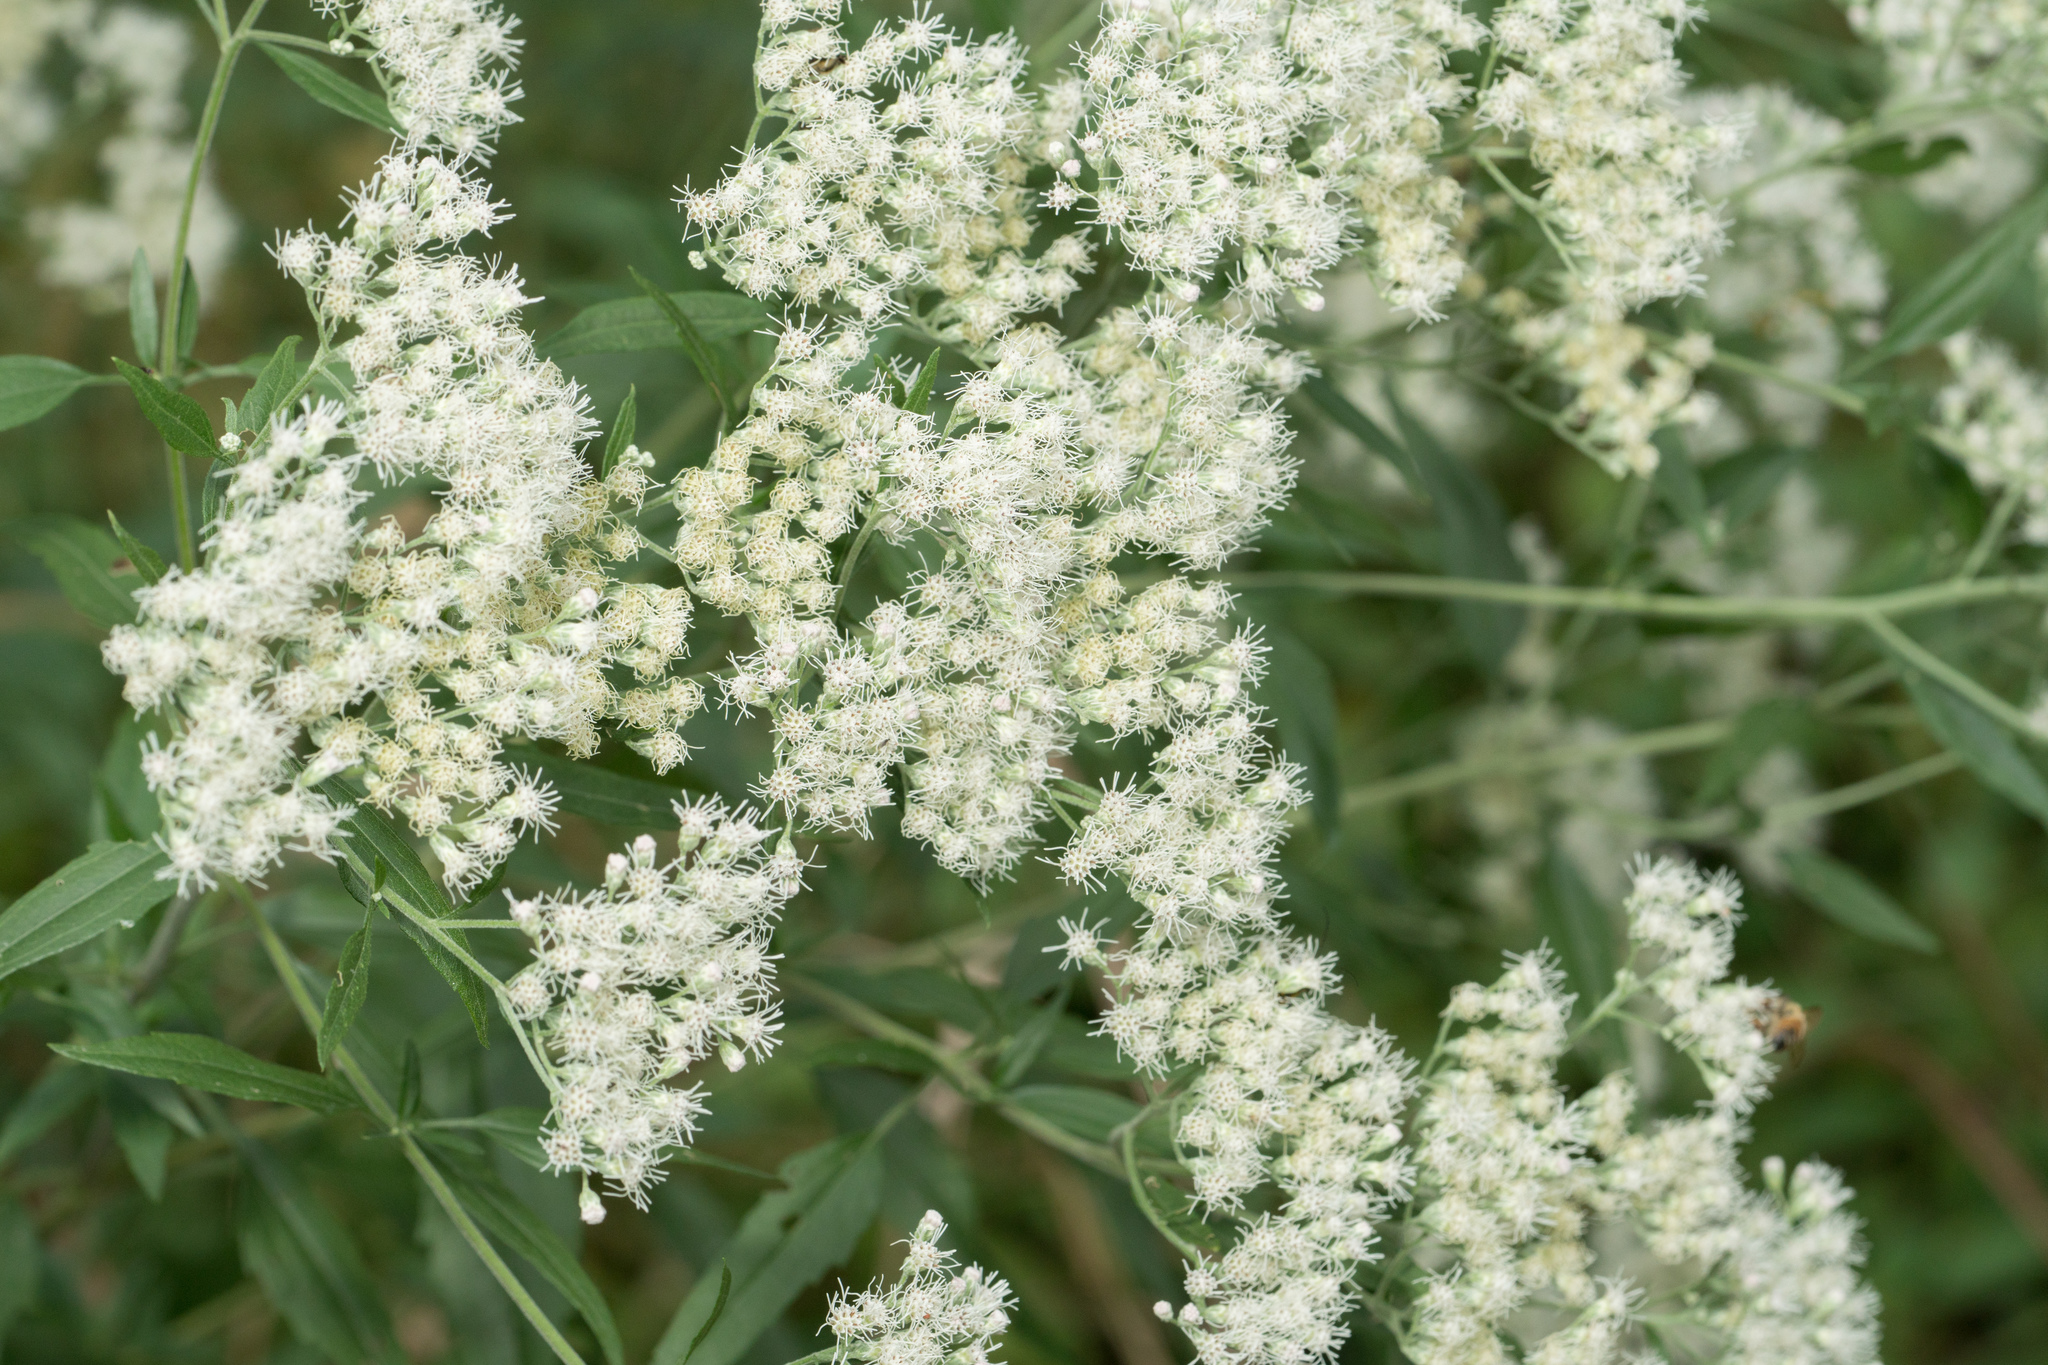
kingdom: Plantae
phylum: Tracheophyta
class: Magnoliopsida
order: Asterales
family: Asteraceae
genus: Eupatorium
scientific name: Eupatorium serotinum
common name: Late boneset
